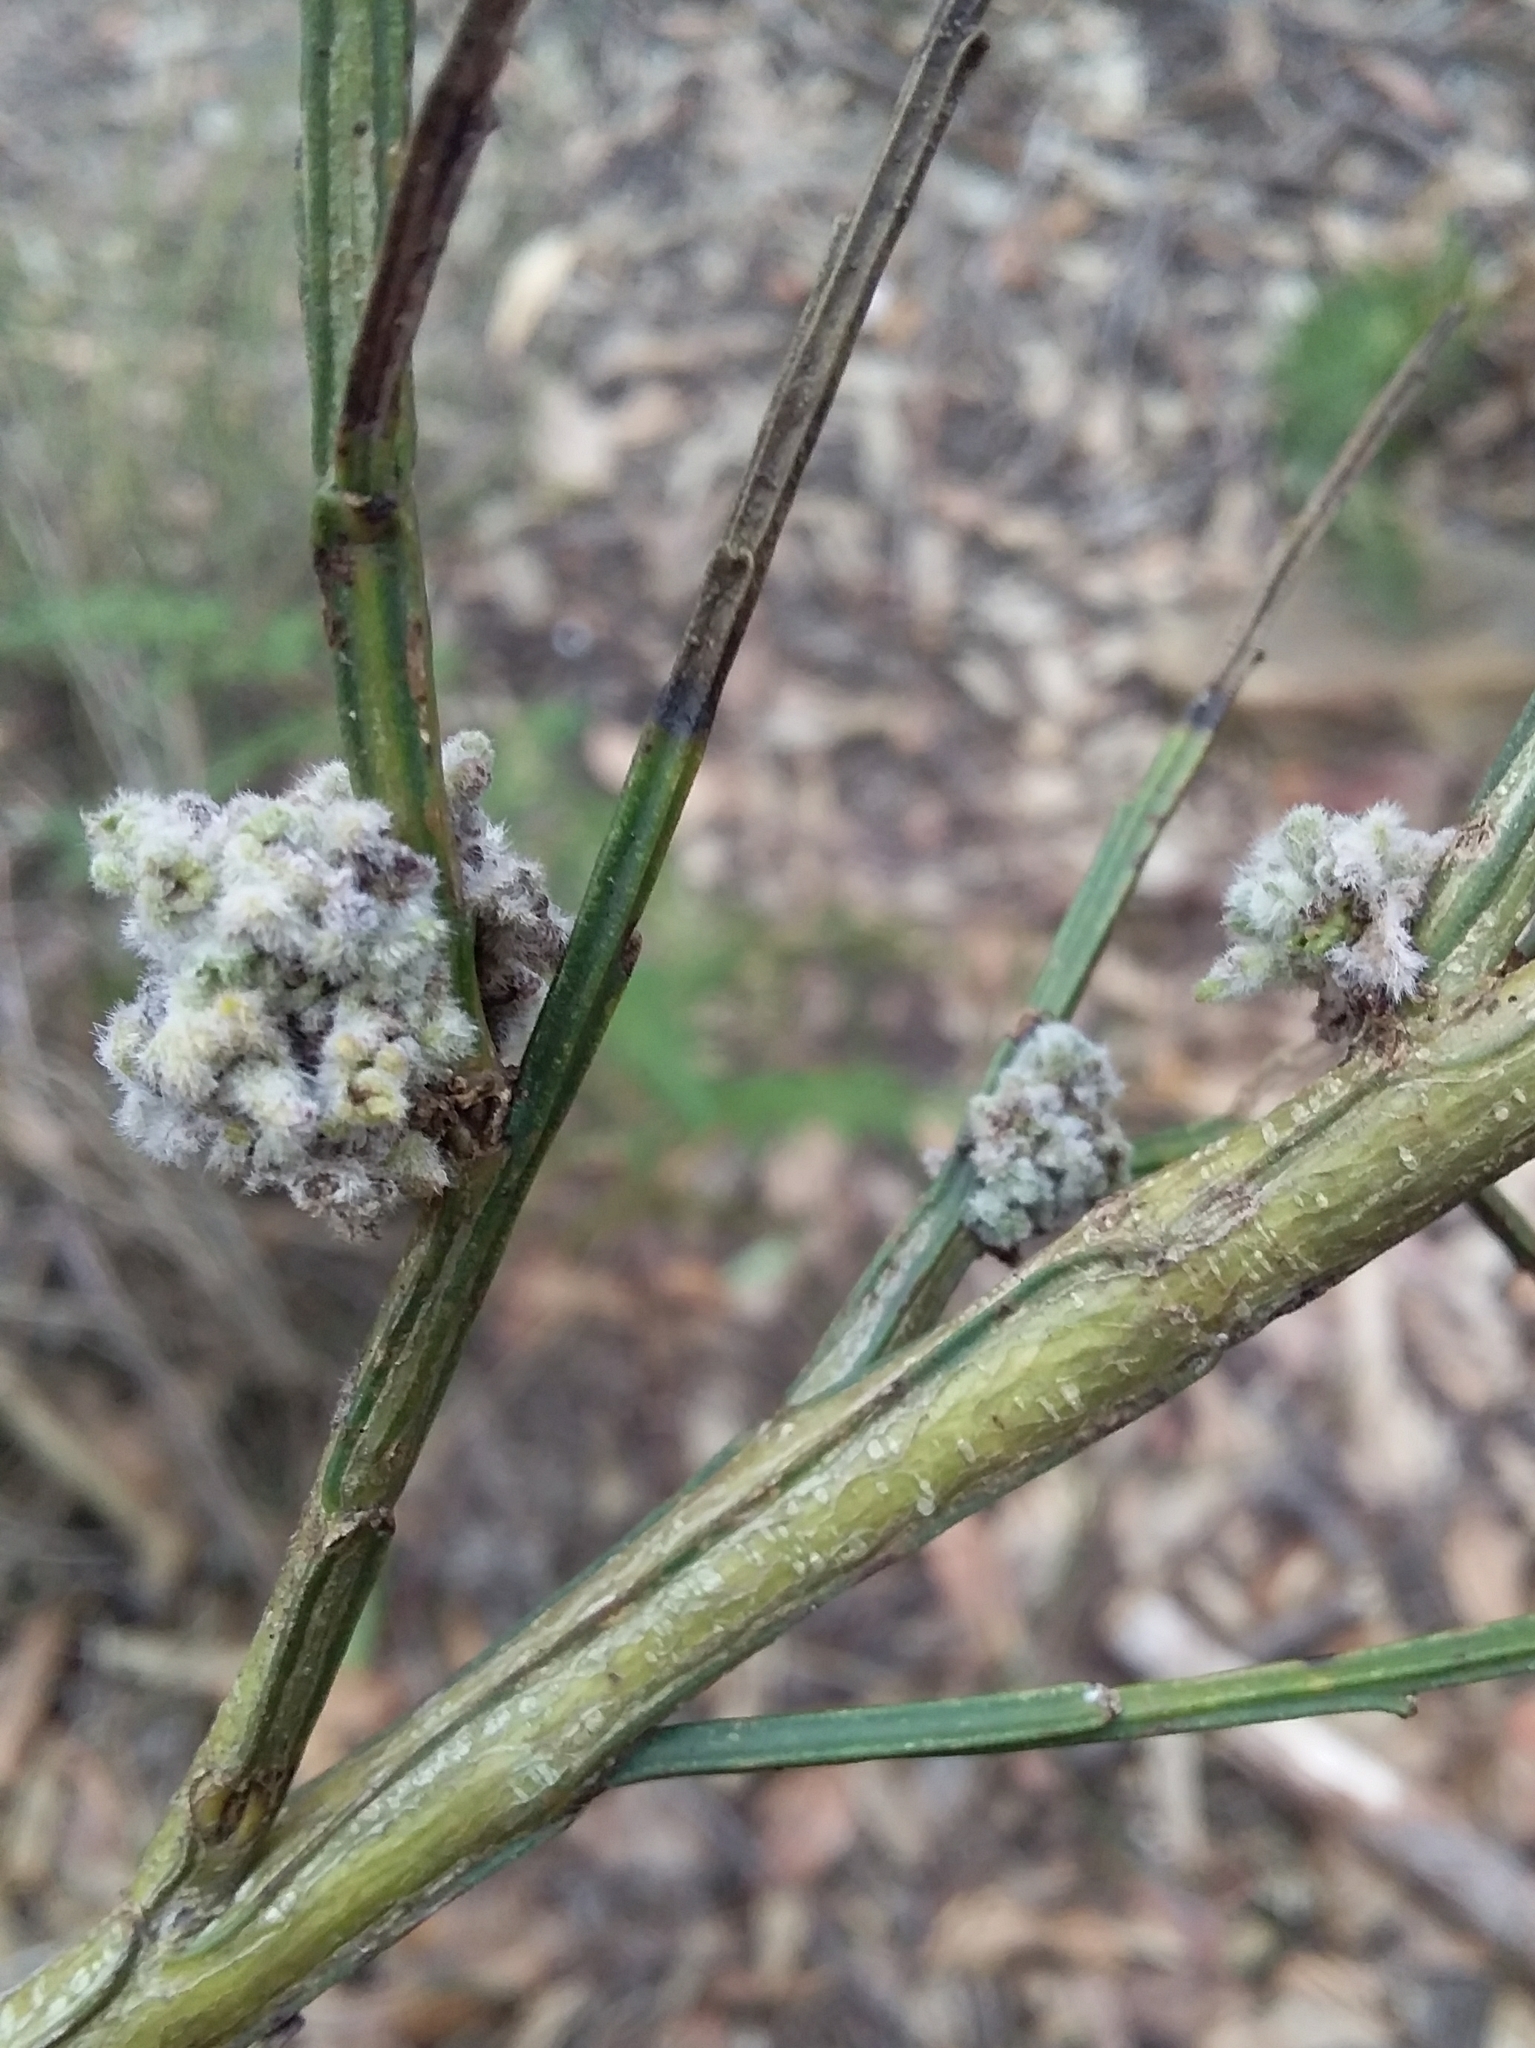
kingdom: Animalia
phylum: Arthropoda
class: Arachnida
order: Trombidiformes
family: Eriophyidae
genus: Aceria
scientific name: Aceria genistae
